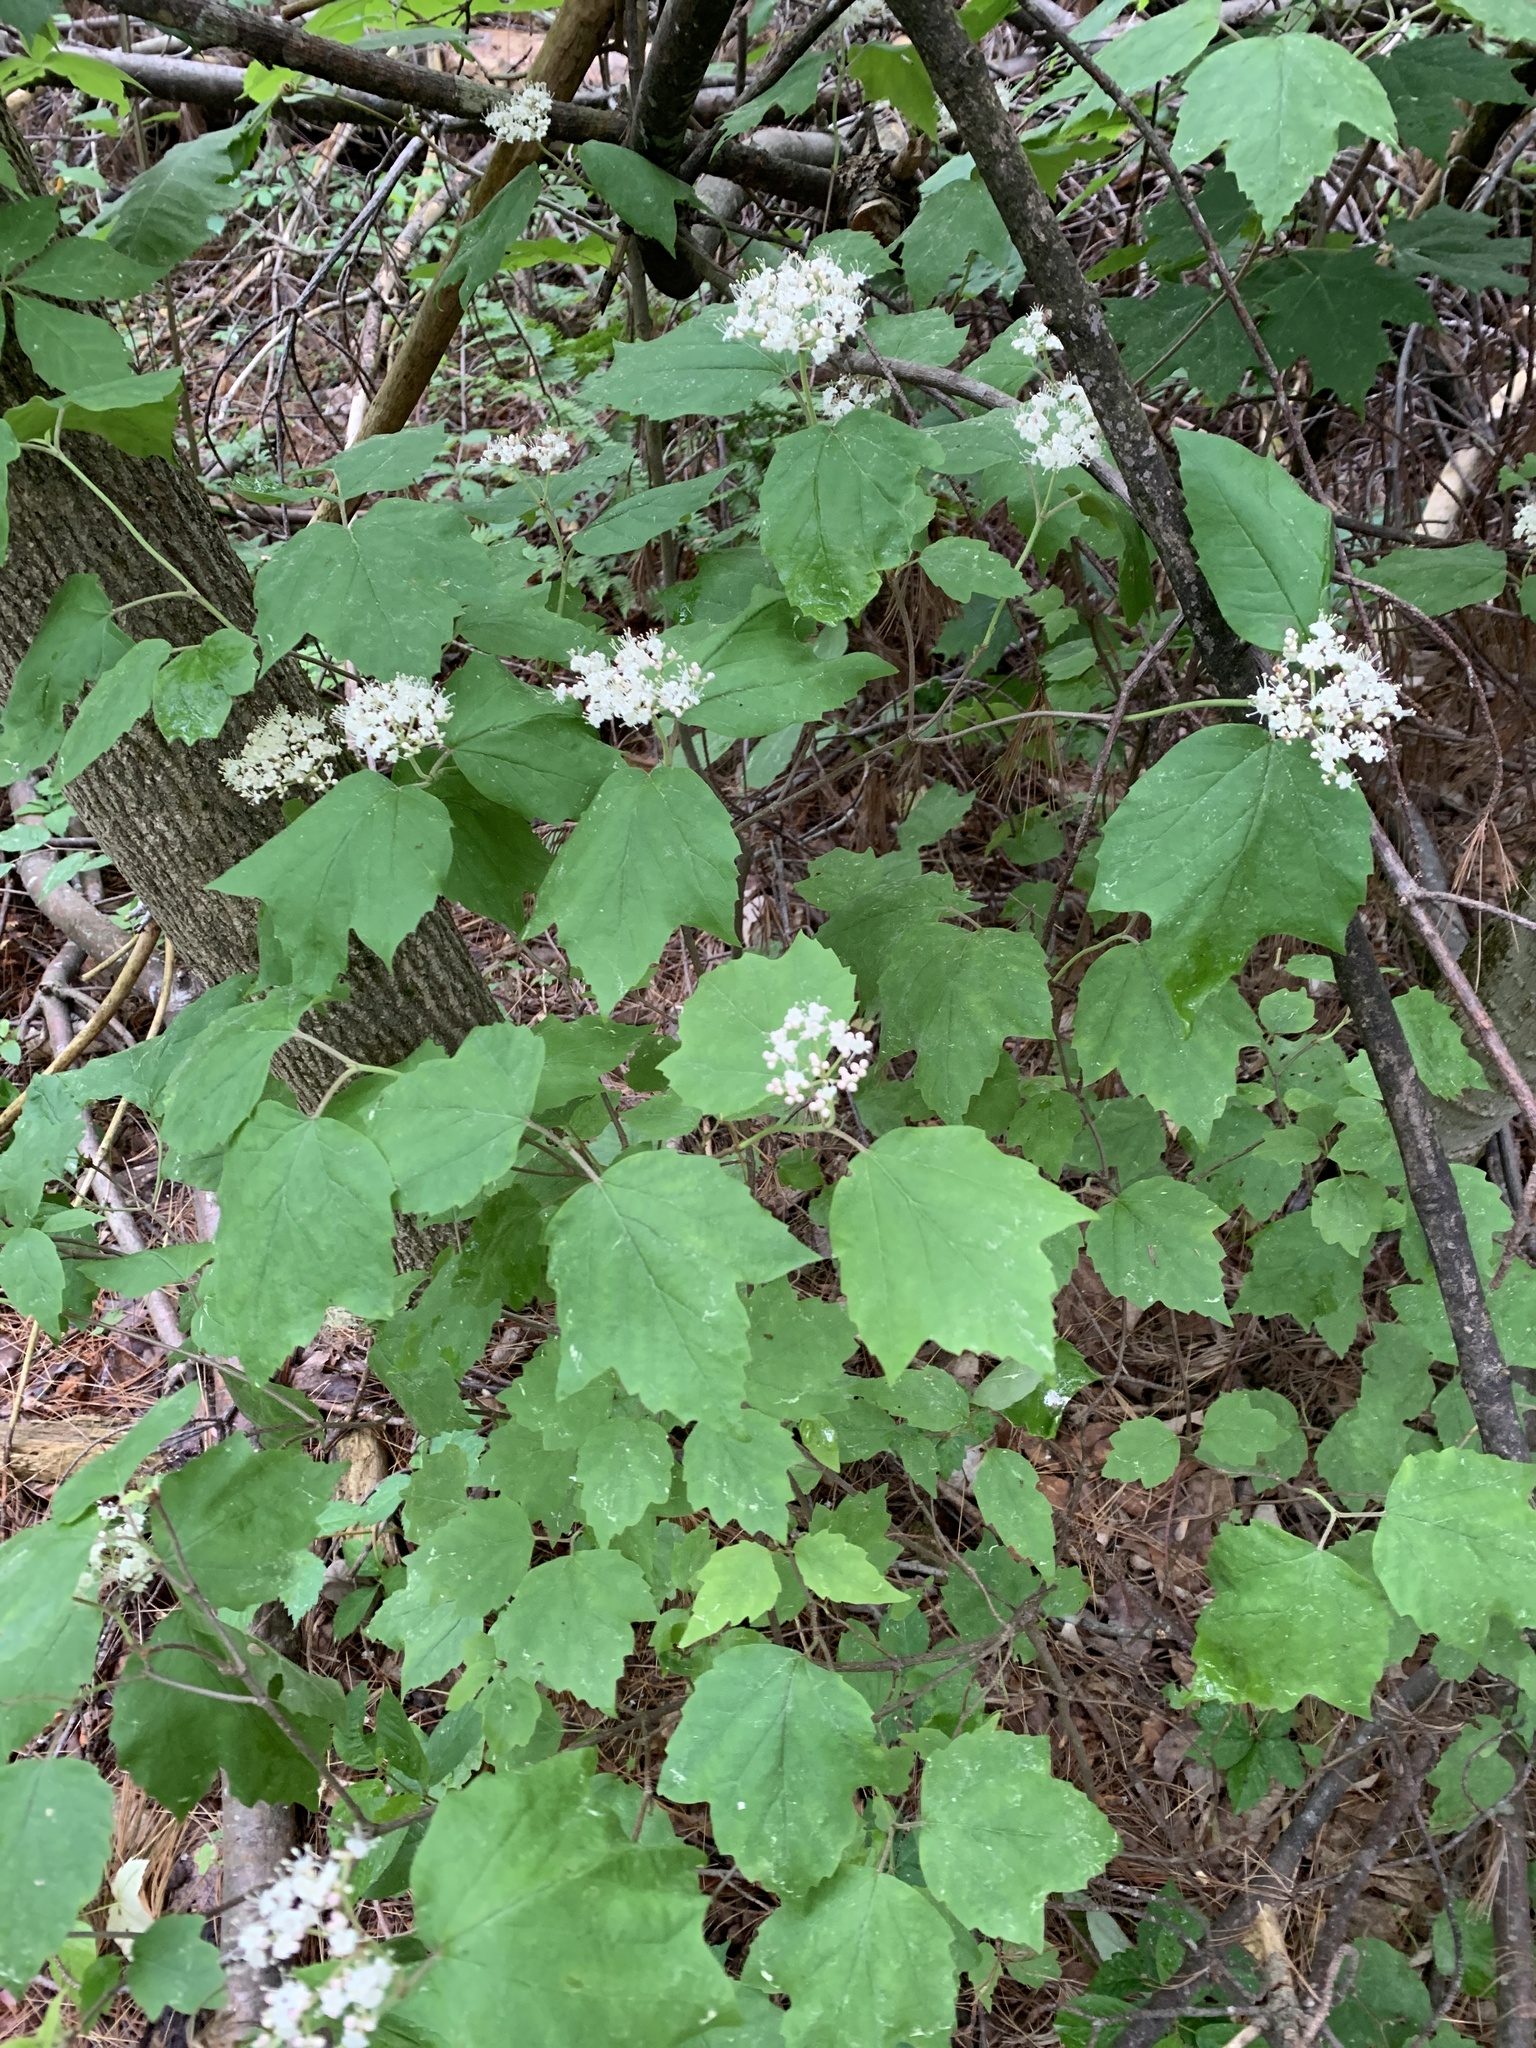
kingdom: Plantae
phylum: Tracheophyta
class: Magnoliopsida
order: Dipsacales
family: Viburnaceae
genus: Viburnum
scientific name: Viburnum acerifolium
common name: Dockmackie
